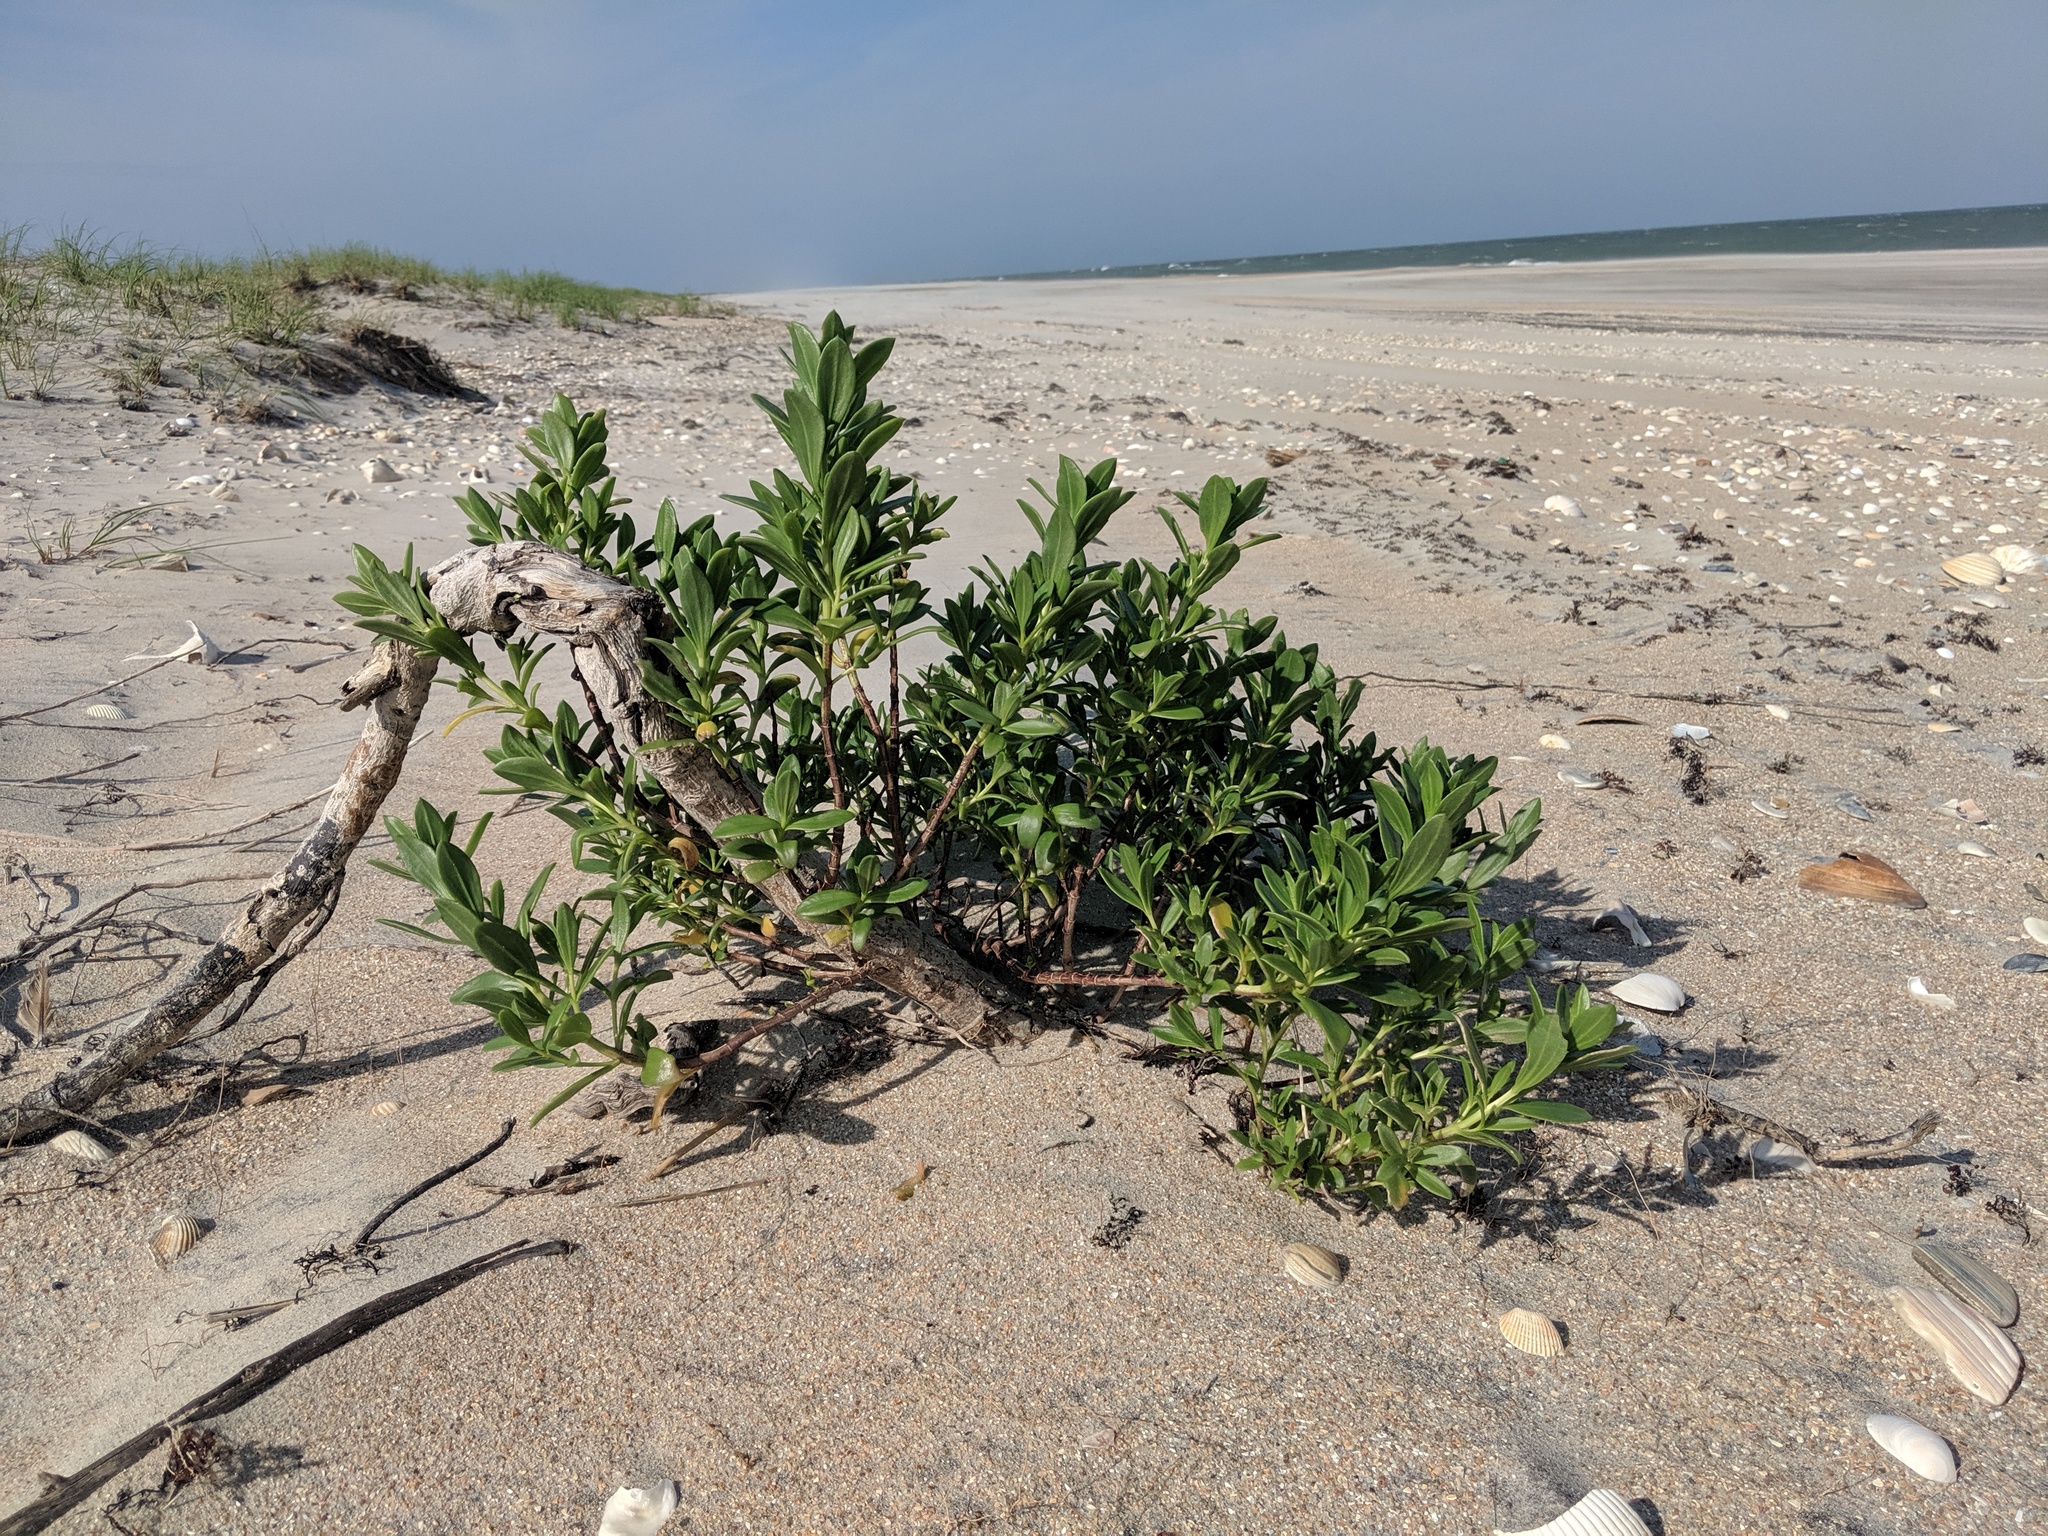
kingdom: Plantae
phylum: Tracheophyta
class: Magnoliopsida
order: Asterales
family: Asteraceae
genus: Iva
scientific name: Iva imbricata
